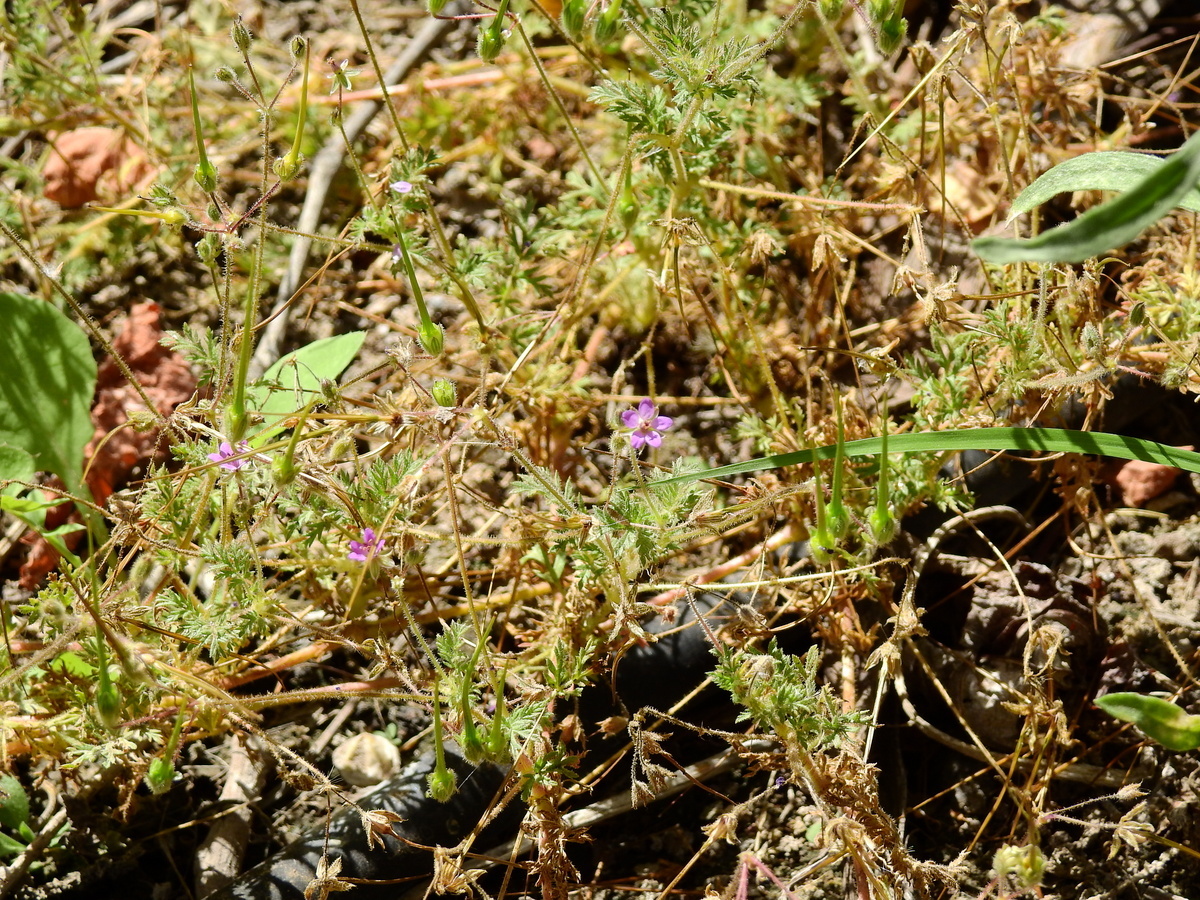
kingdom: Plantae
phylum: Tracheophyta
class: Magnoliopsida
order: Geraniales
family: Geraniaceae
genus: Erodium
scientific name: Erodium cicutarium
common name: Common stork's-bill
